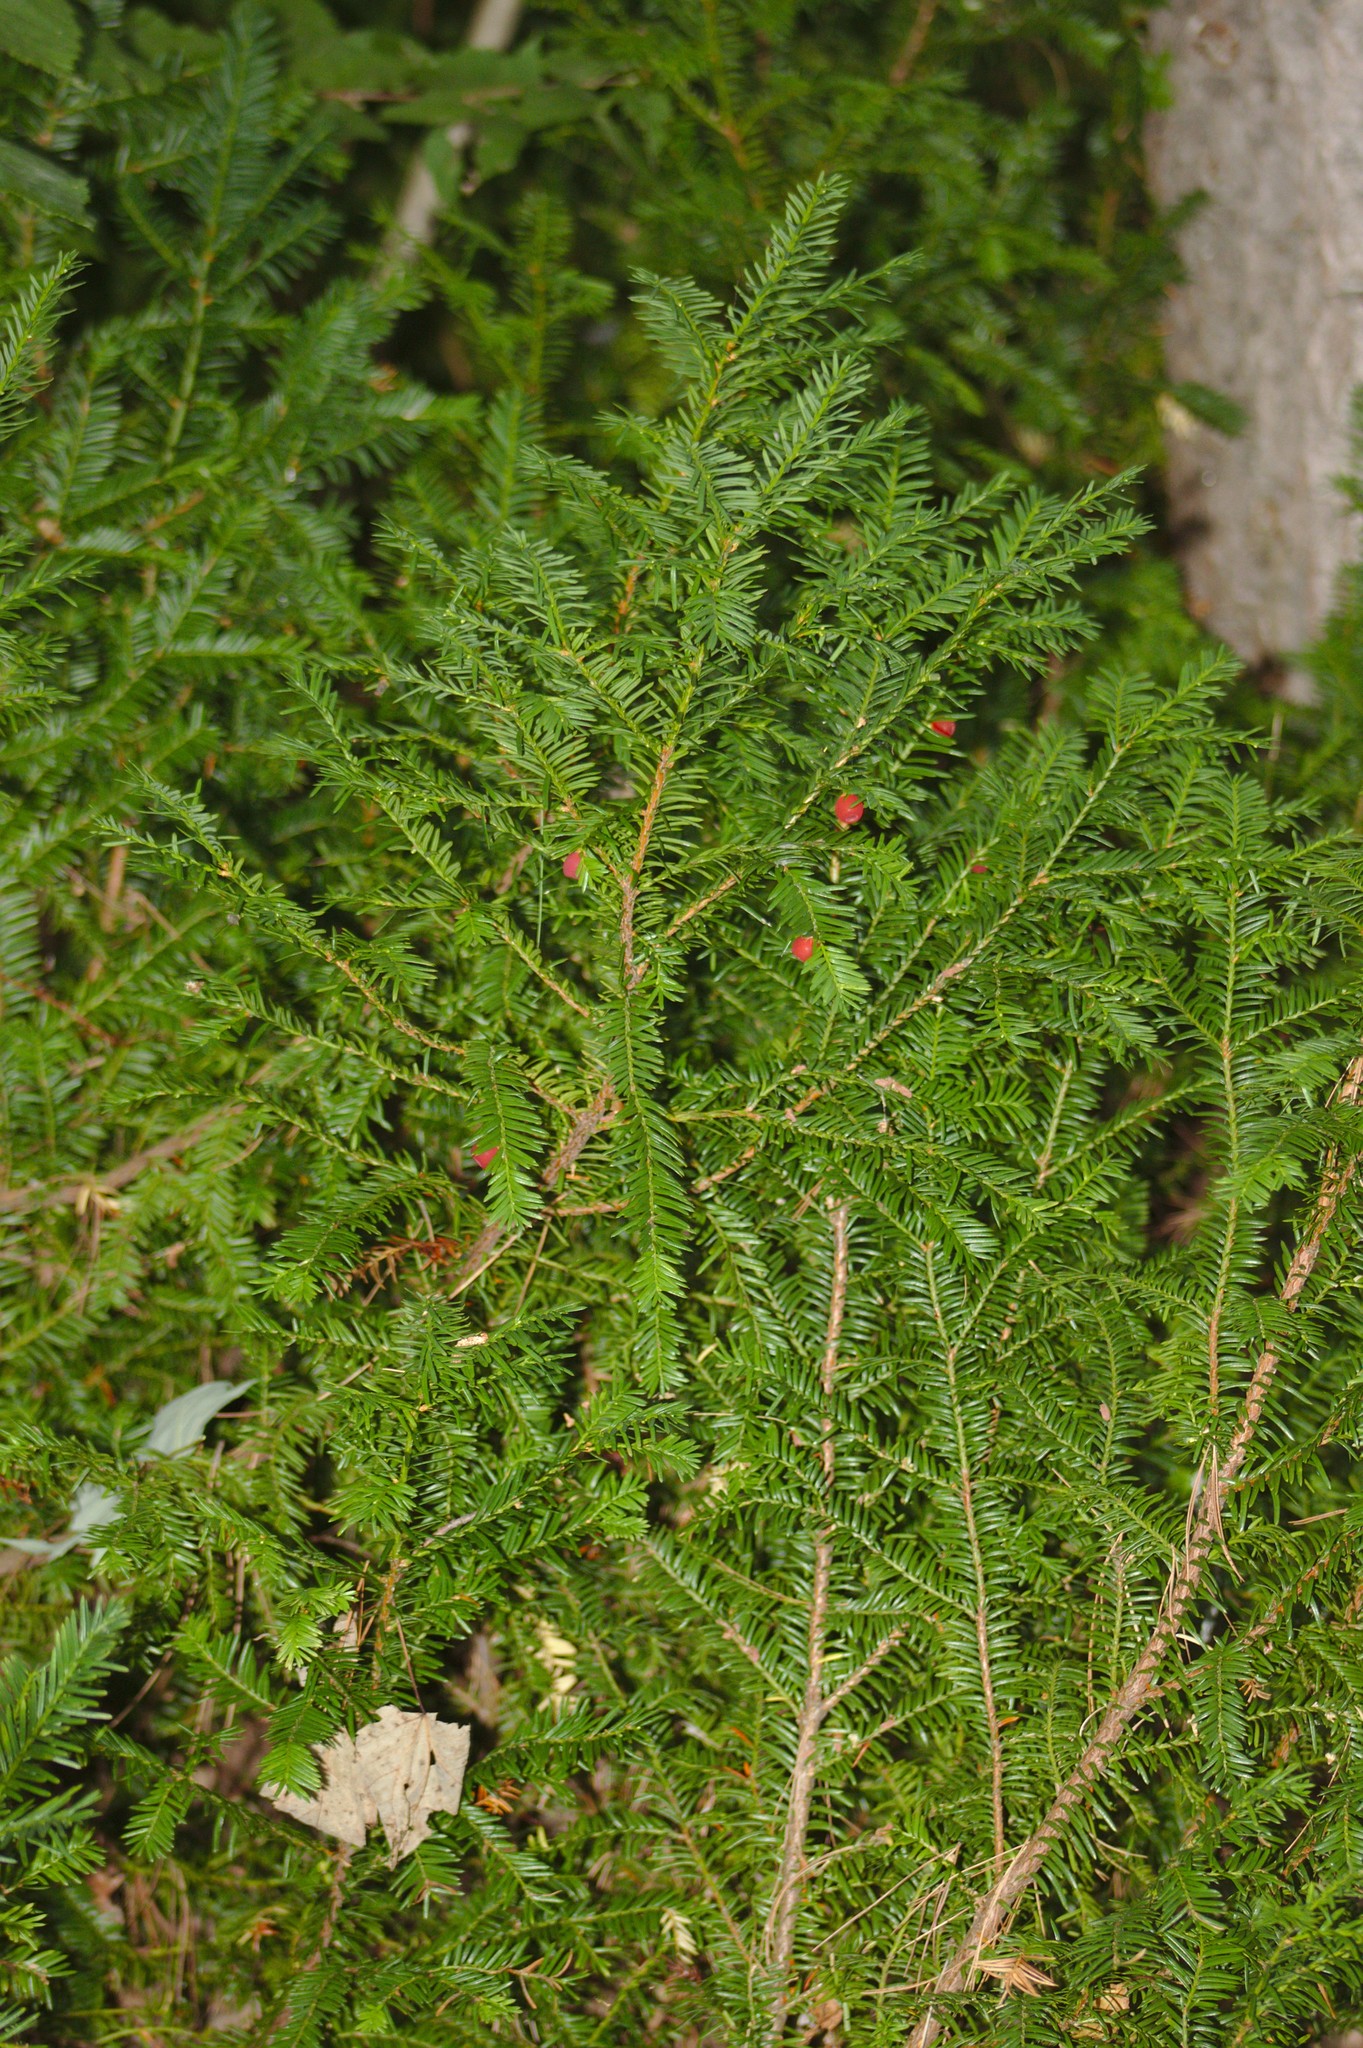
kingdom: Plantae
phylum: Tracheophyta
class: Pinopsida
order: Pinales
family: Taxaceae
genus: Taxus
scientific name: Taxus canadensis
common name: American yew
